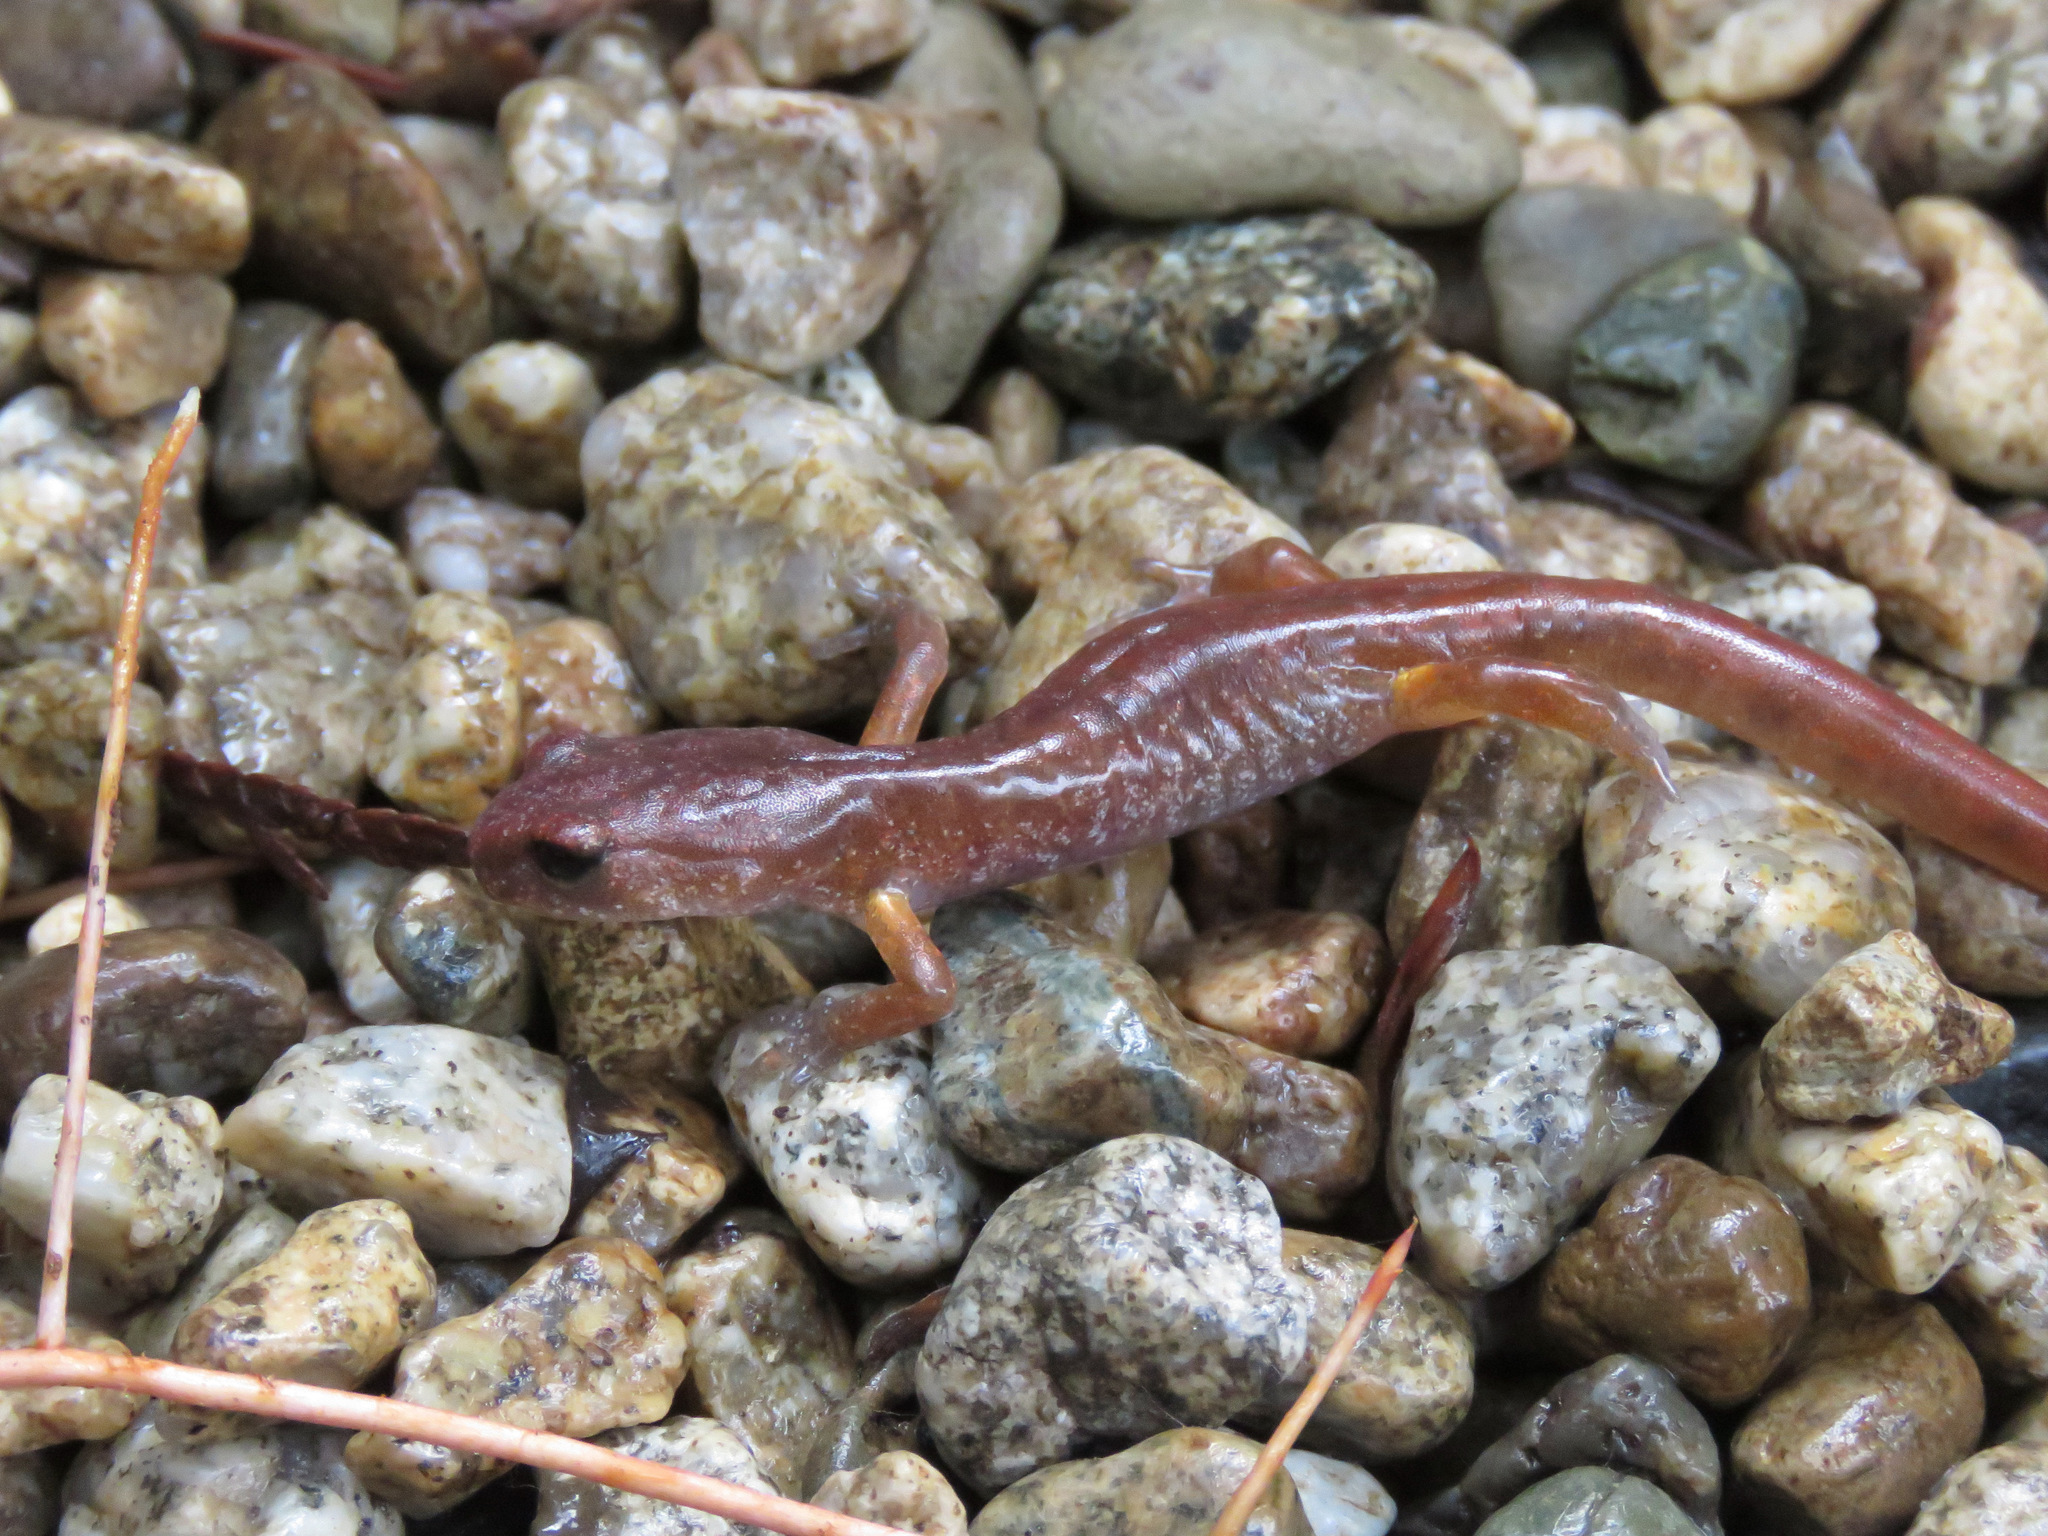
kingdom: Animalia
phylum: Chordata
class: Amphibia
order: Caudata
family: Plethodontidae
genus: Ensatina
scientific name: Ensatina eschscholtzii
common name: Ensatina
